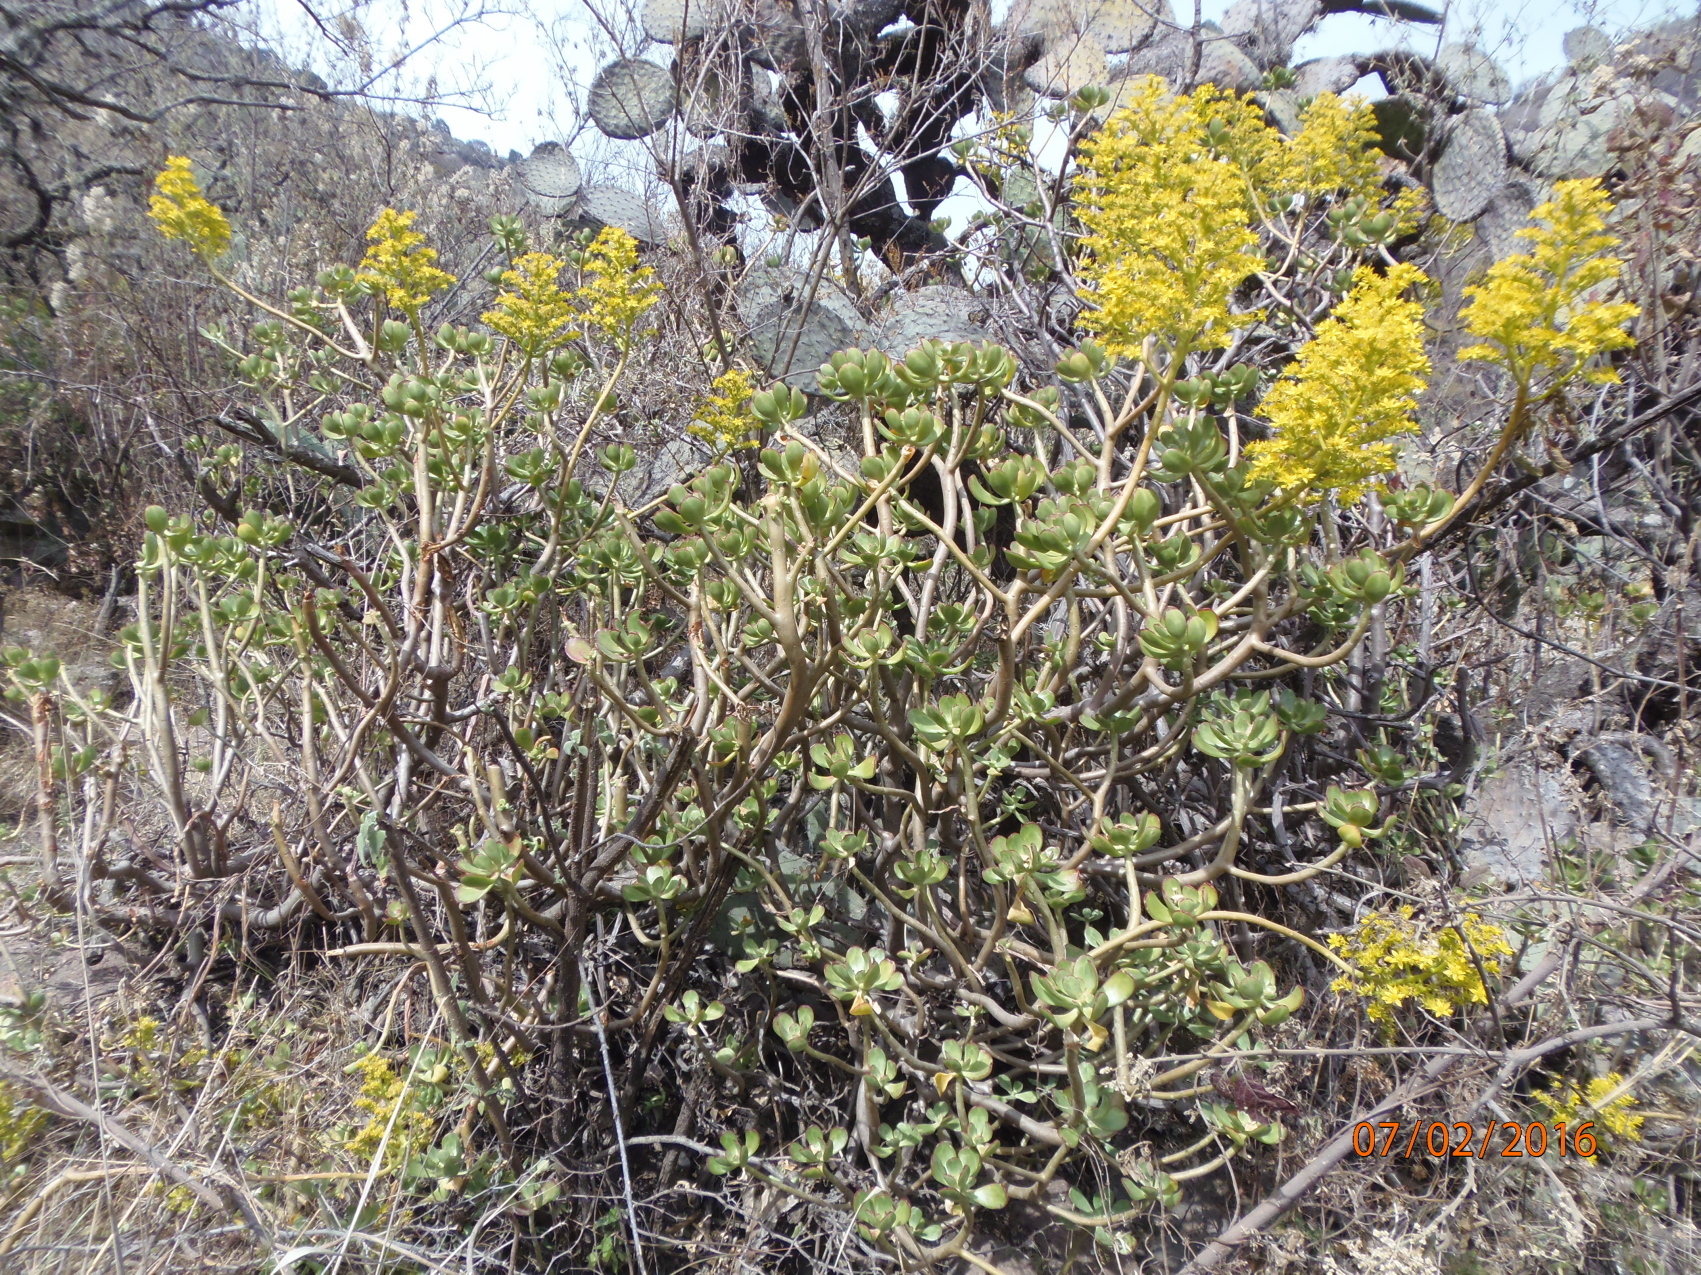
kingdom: Plantae
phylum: Tracheophyta
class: Magnoliopsida
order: Saxifragales
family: Crassulaceae
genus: Sedum
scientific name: Sedum dendroideum
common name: Tree stonecrop
